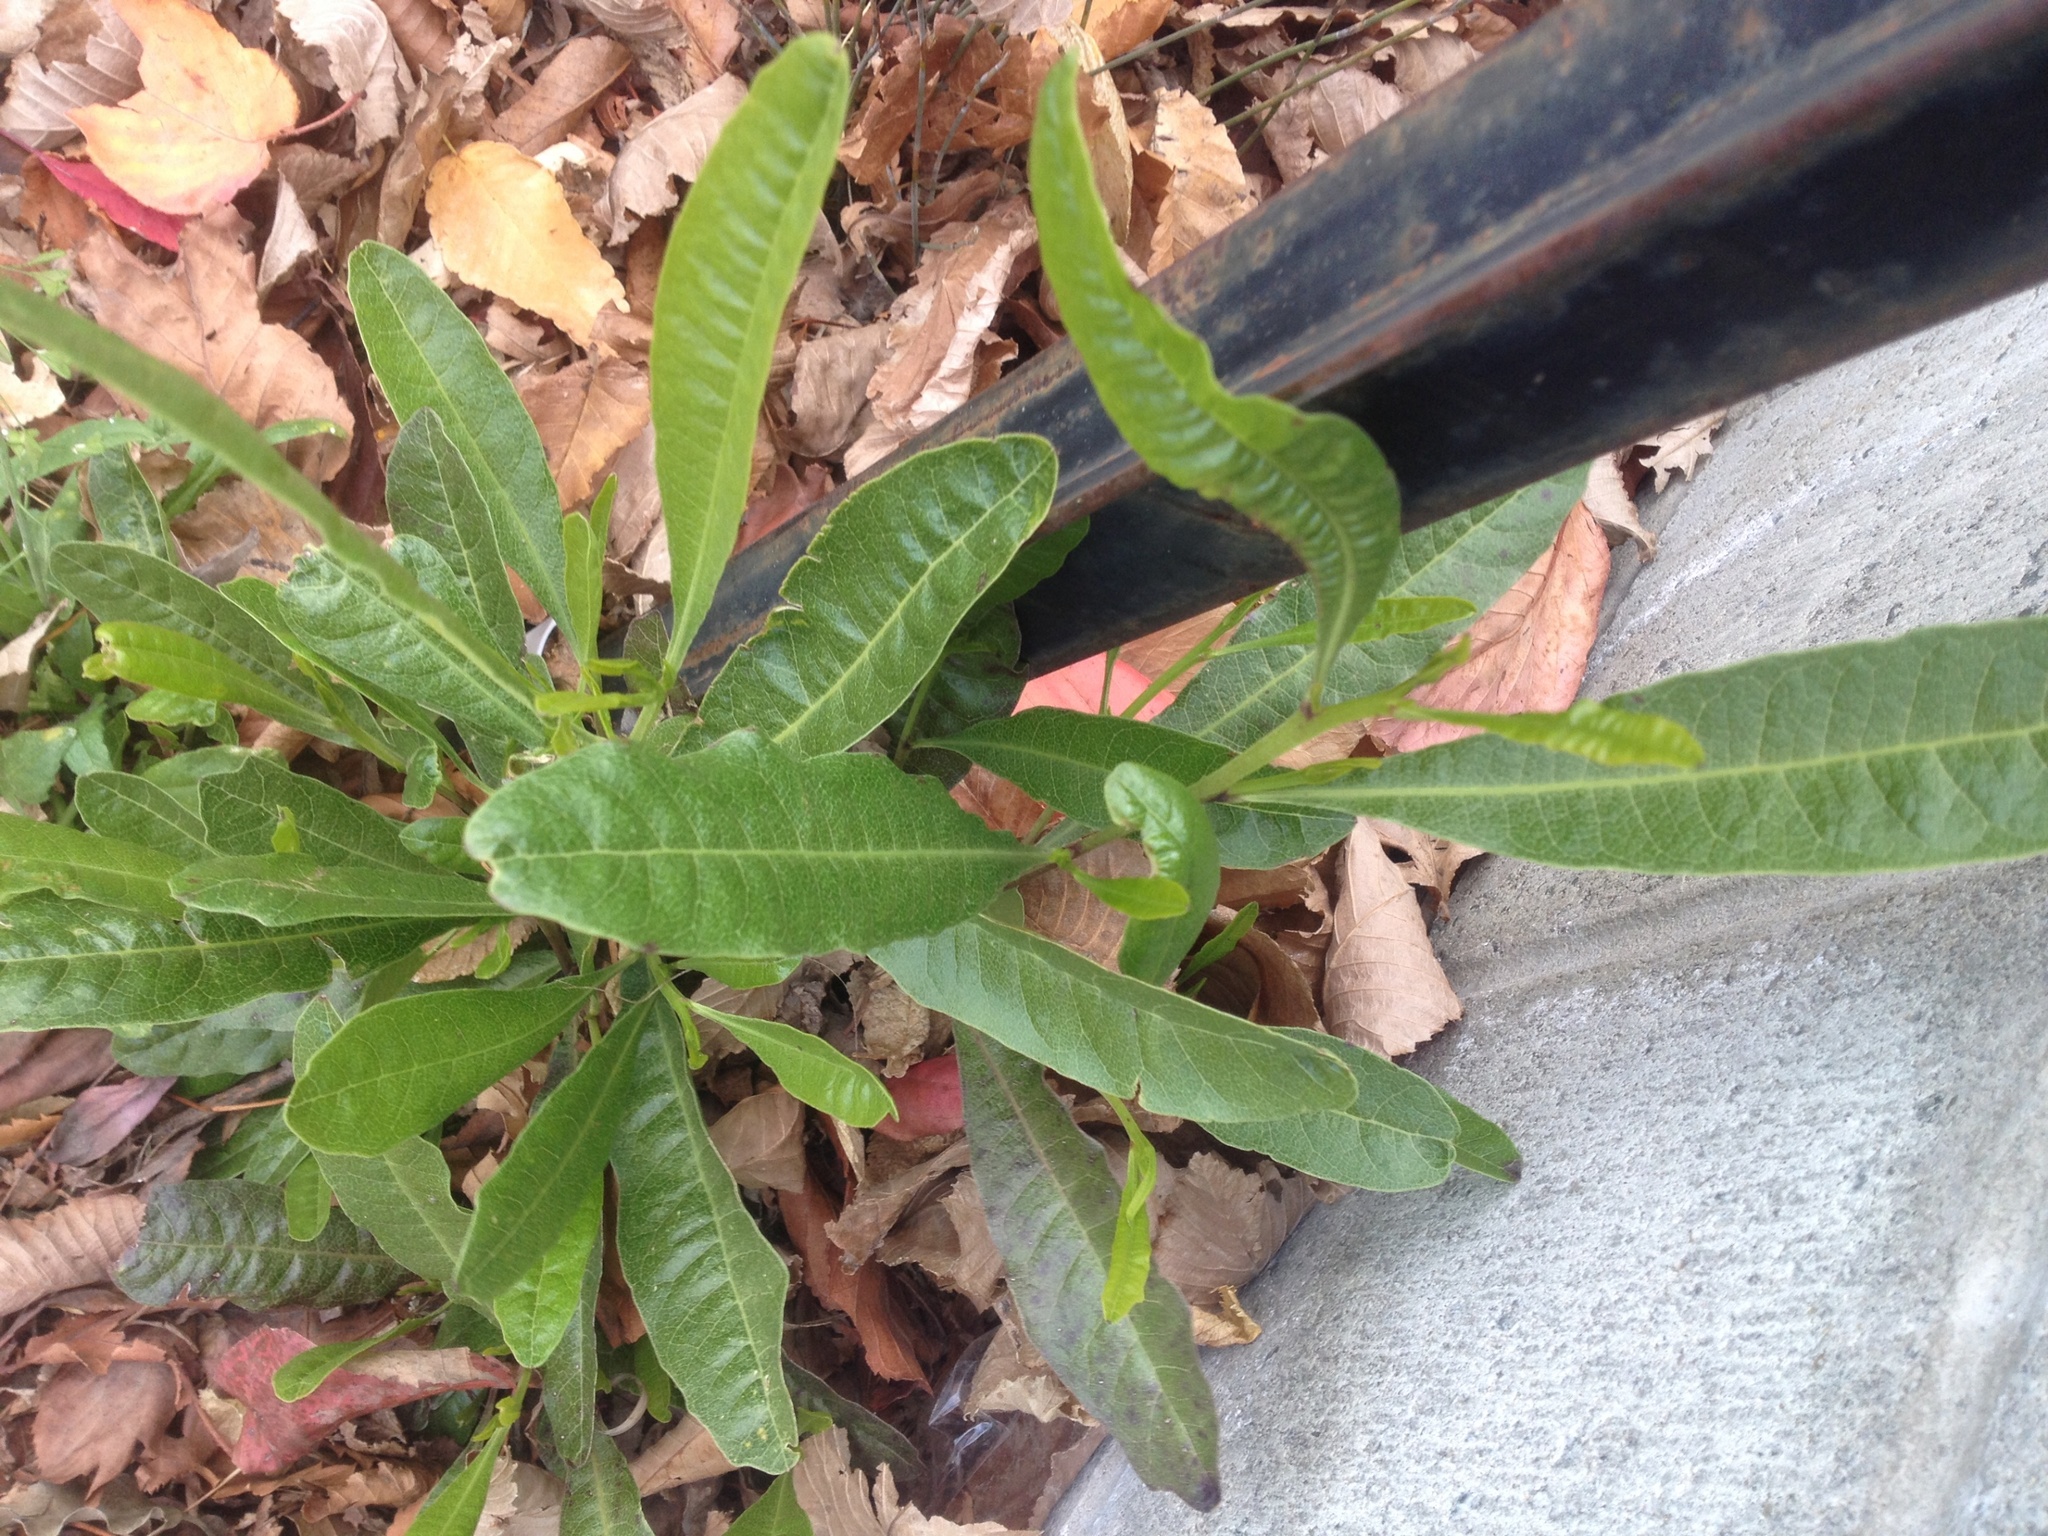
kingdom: Plantae
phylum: Tracheophyta
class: Magnoliopsida
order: Sapindales
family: Sapindaceae
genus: Dodonaea
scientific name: Dodonaea viscosa
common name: Hopbush
